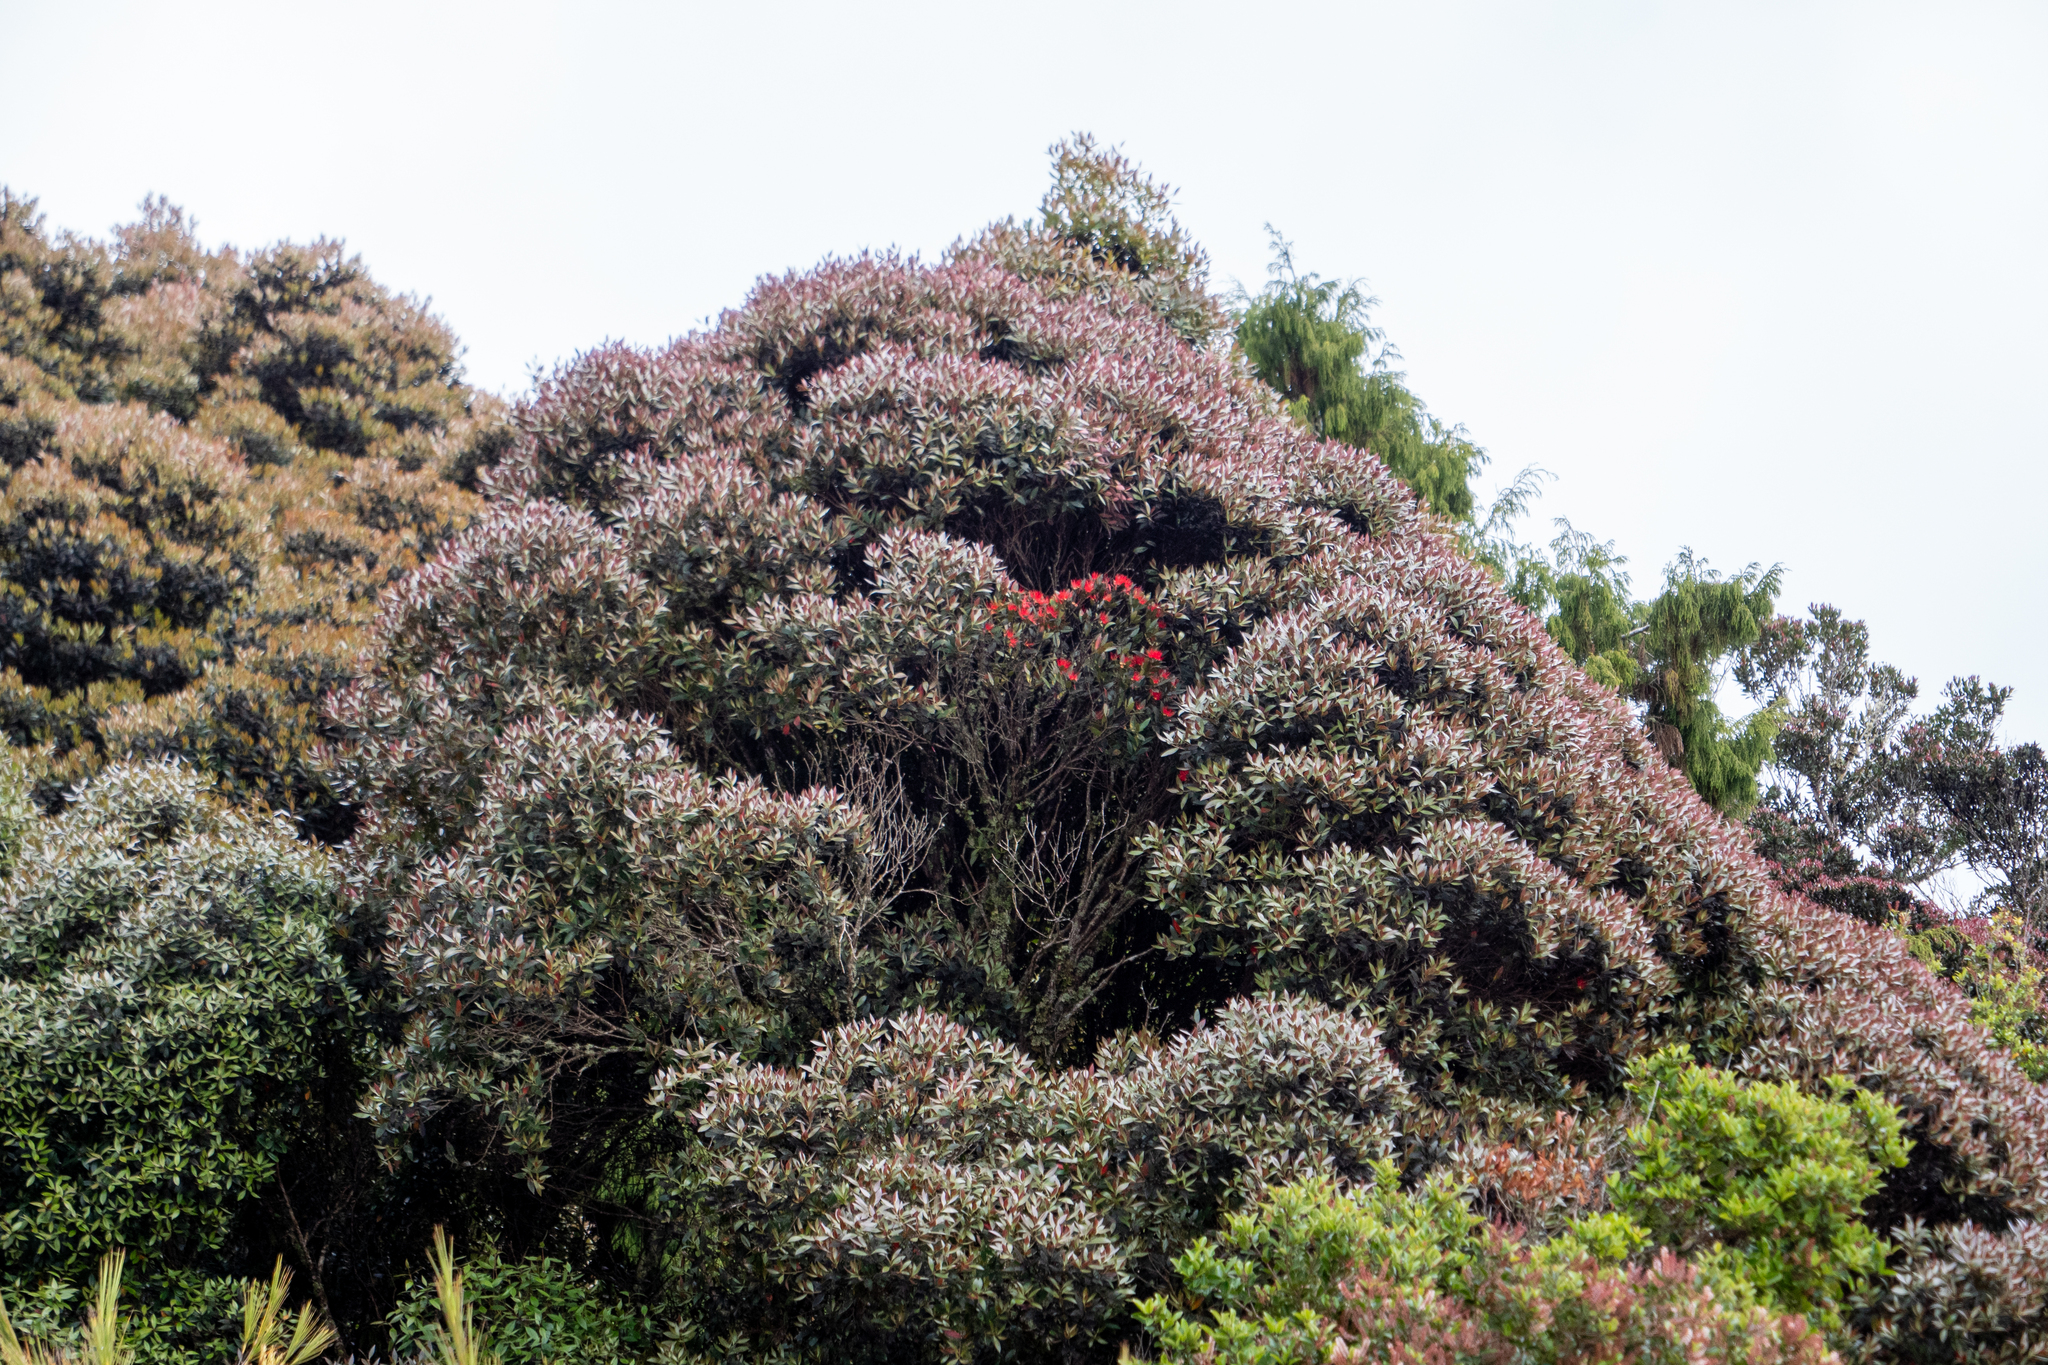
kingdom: Plantae
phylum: Tracheophyta
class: Magnoliopsida
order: Myrtales
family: Myrtaceae
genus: Metrosideros
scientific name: Metrosideros umbellata
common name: Southern rata
